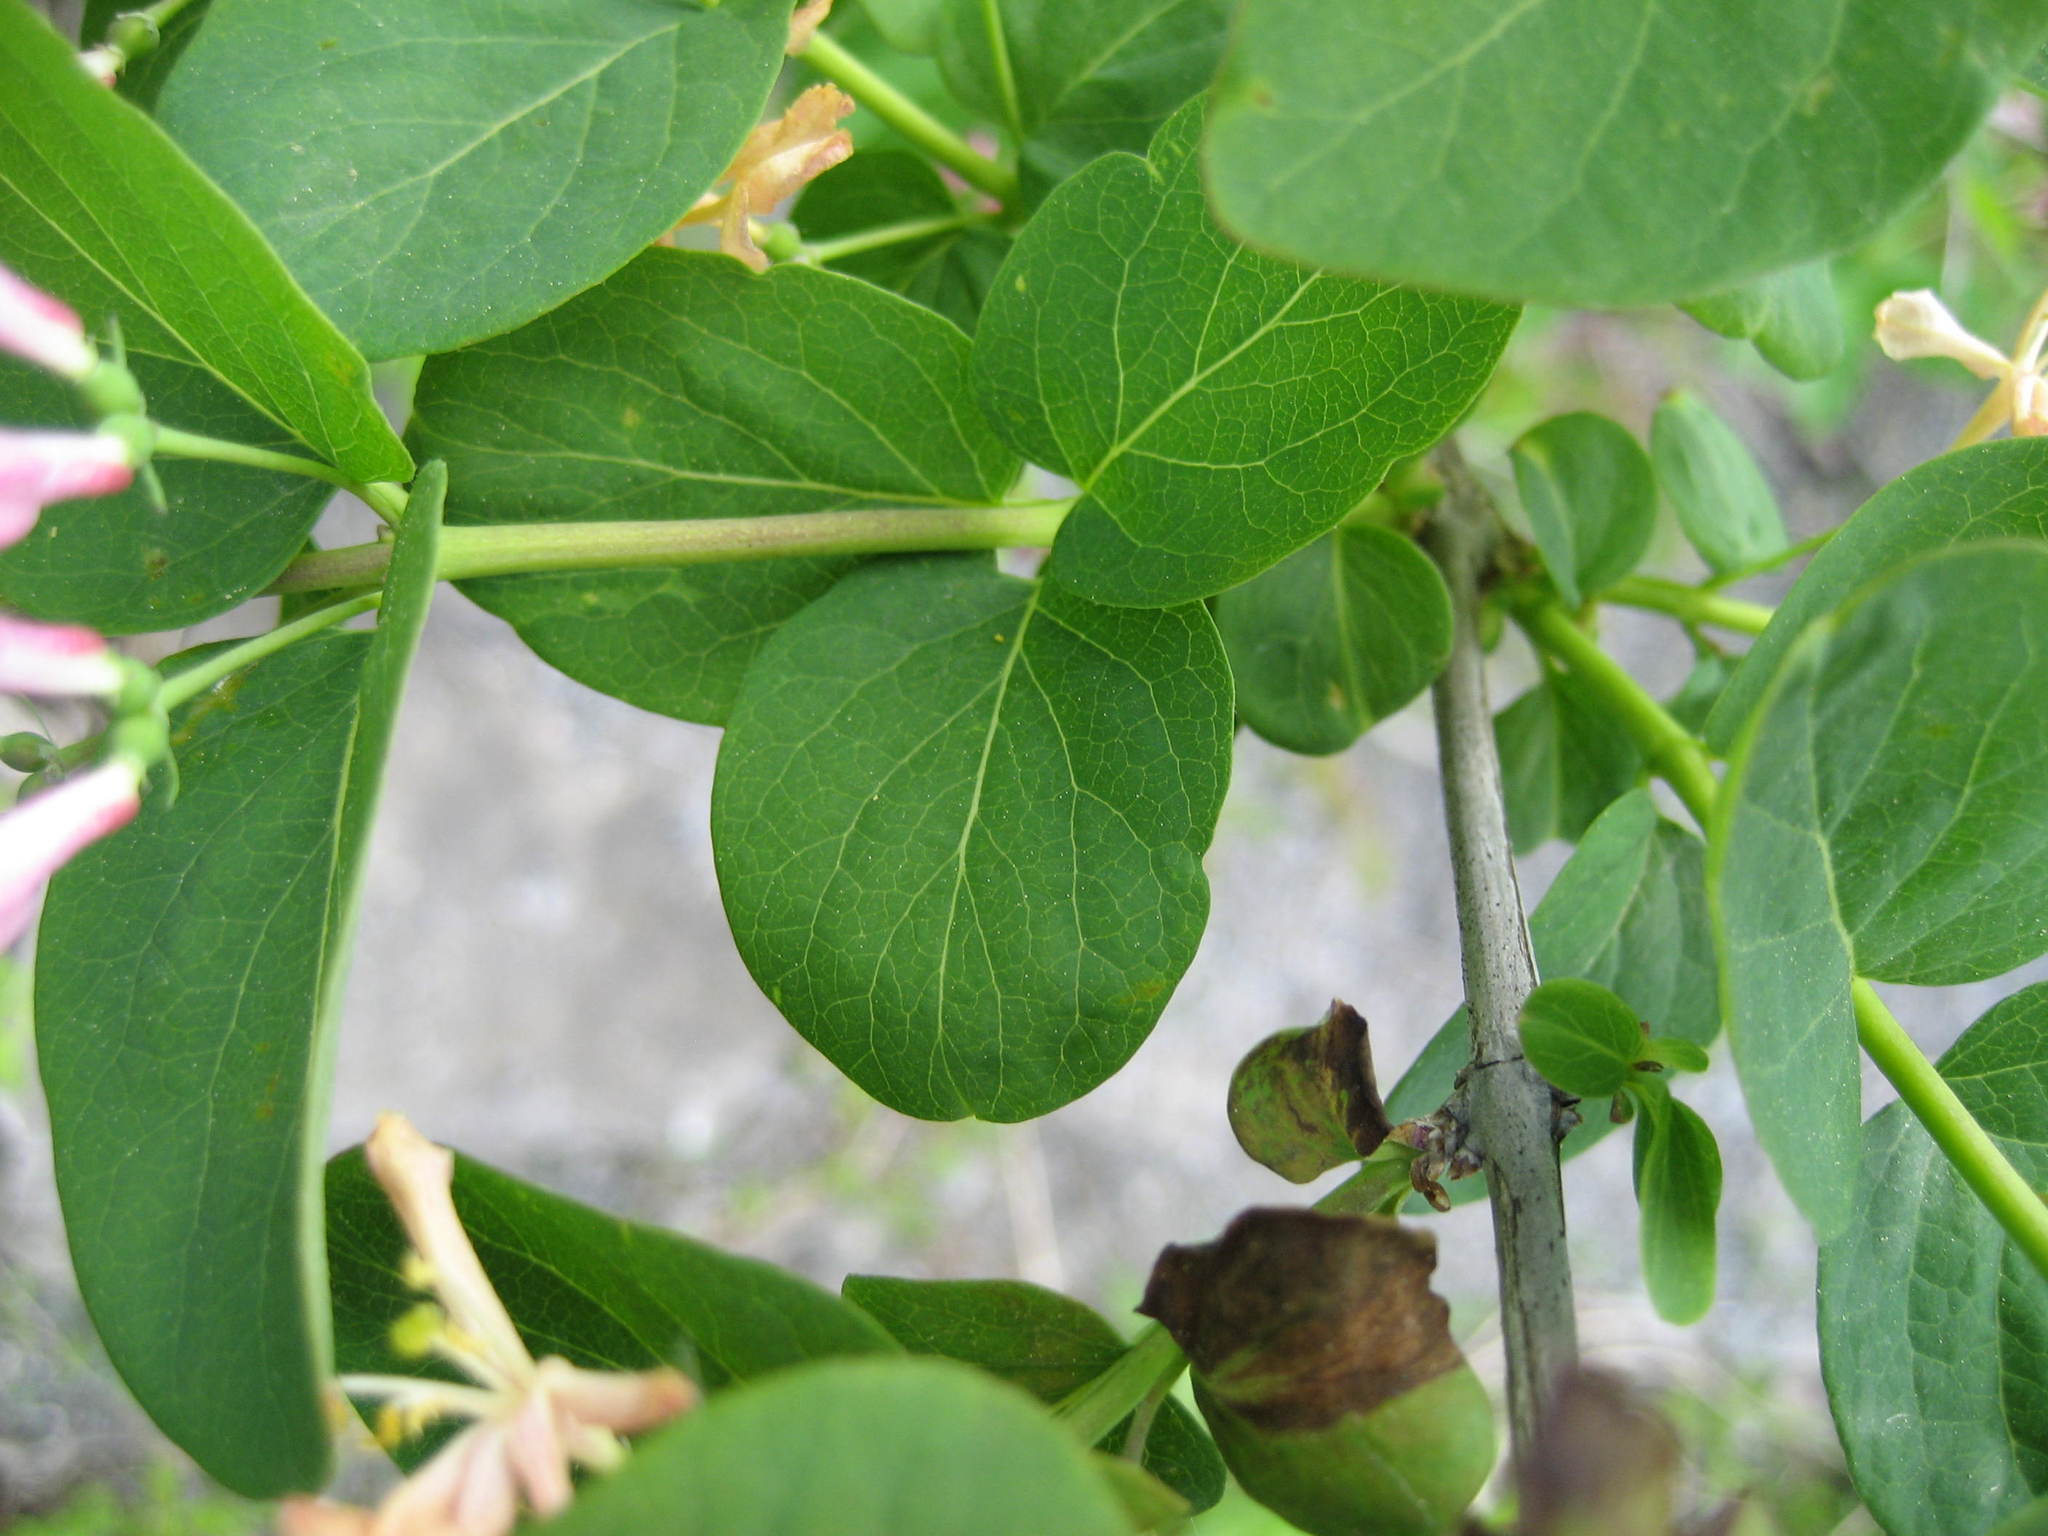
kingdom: Plantae
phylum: Tracheophyta
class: Magnoliopsida
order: Dipsacales
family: Caprifoliaceae
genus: Lonicera
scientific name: Lonicera tatarica
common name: Tatarian honeysuckle
